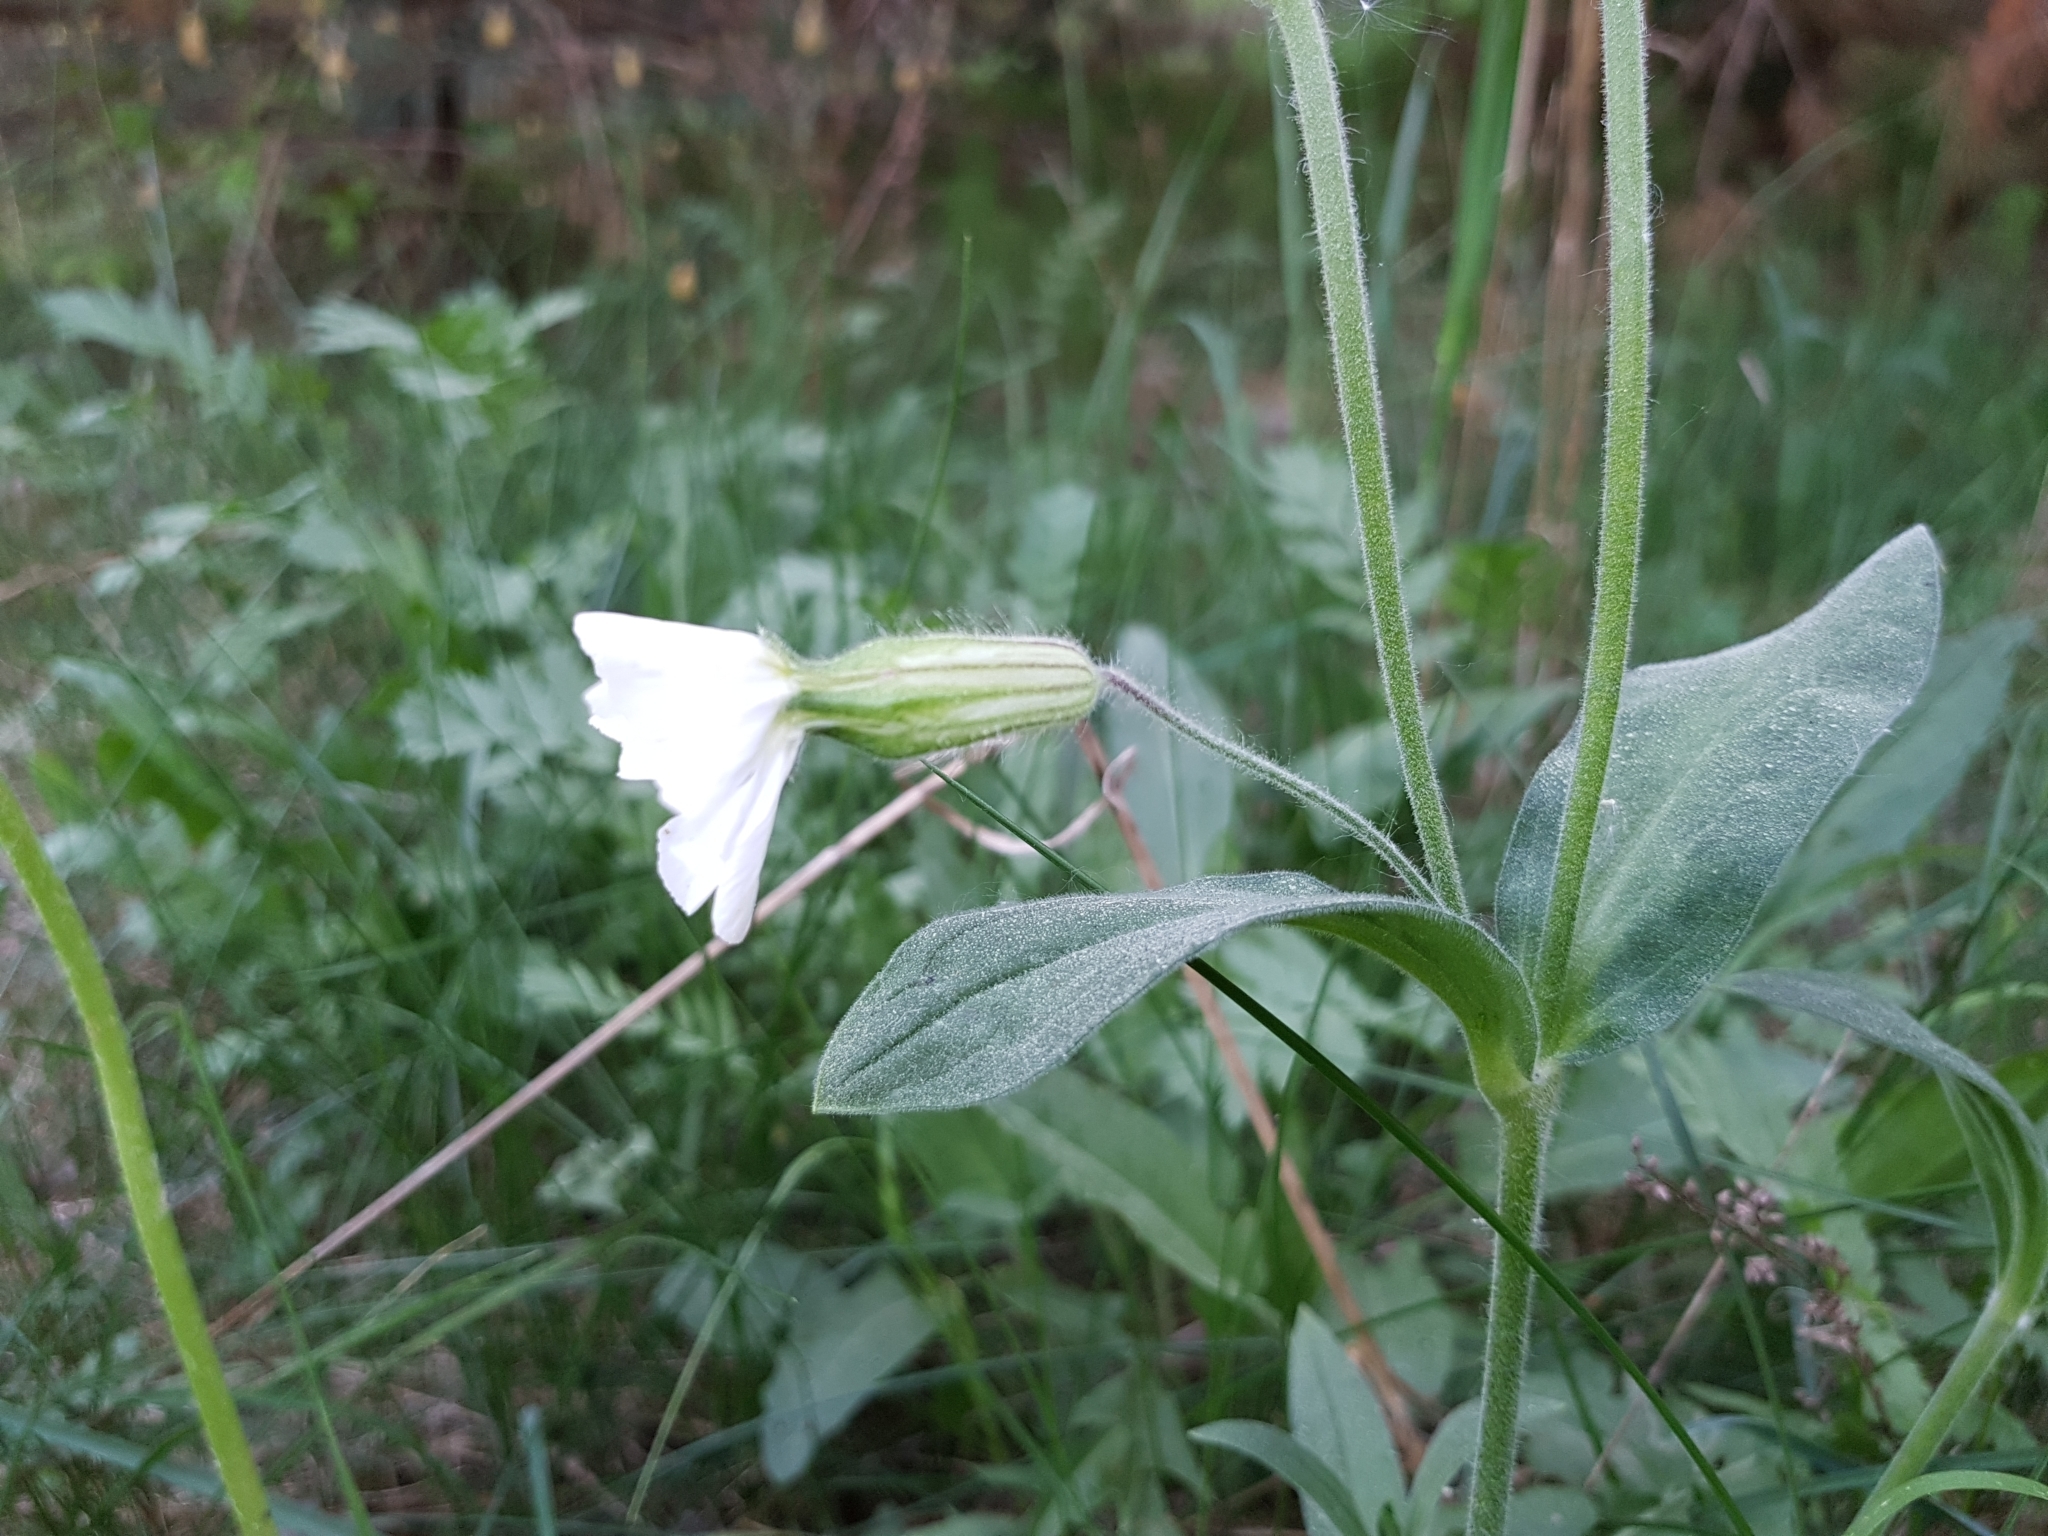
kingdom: Plantae
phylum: Tracheophyta
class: Magnoliopsida
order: Caryophyllales
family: Caryophyllaceae
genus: Silene
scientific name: Silene latifolia
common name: White campion
